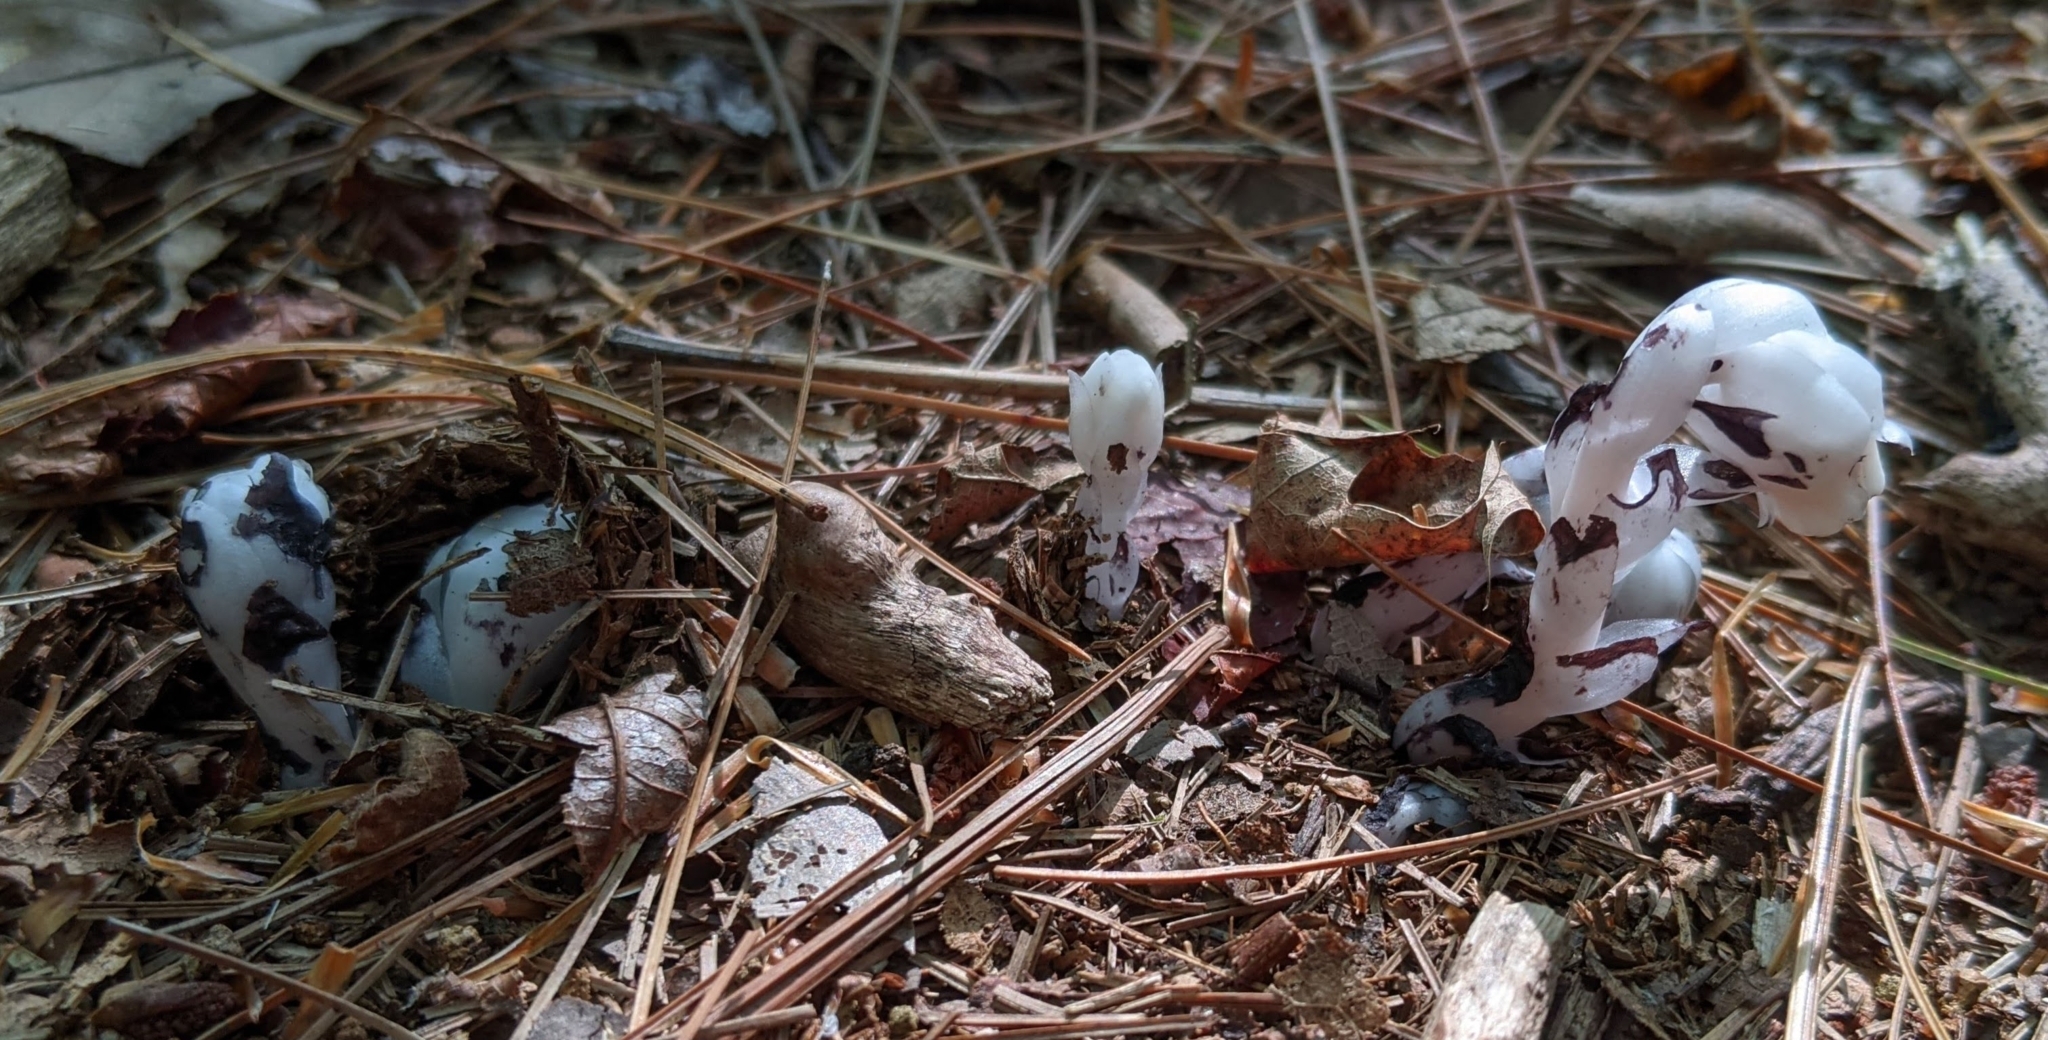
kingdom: Plantae
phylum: Tracheophyta
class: Magnoliopsida
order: Ericales
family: Ericaceae
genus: Monotropa
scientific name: Monotropa uniflora
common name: Convulsion root
